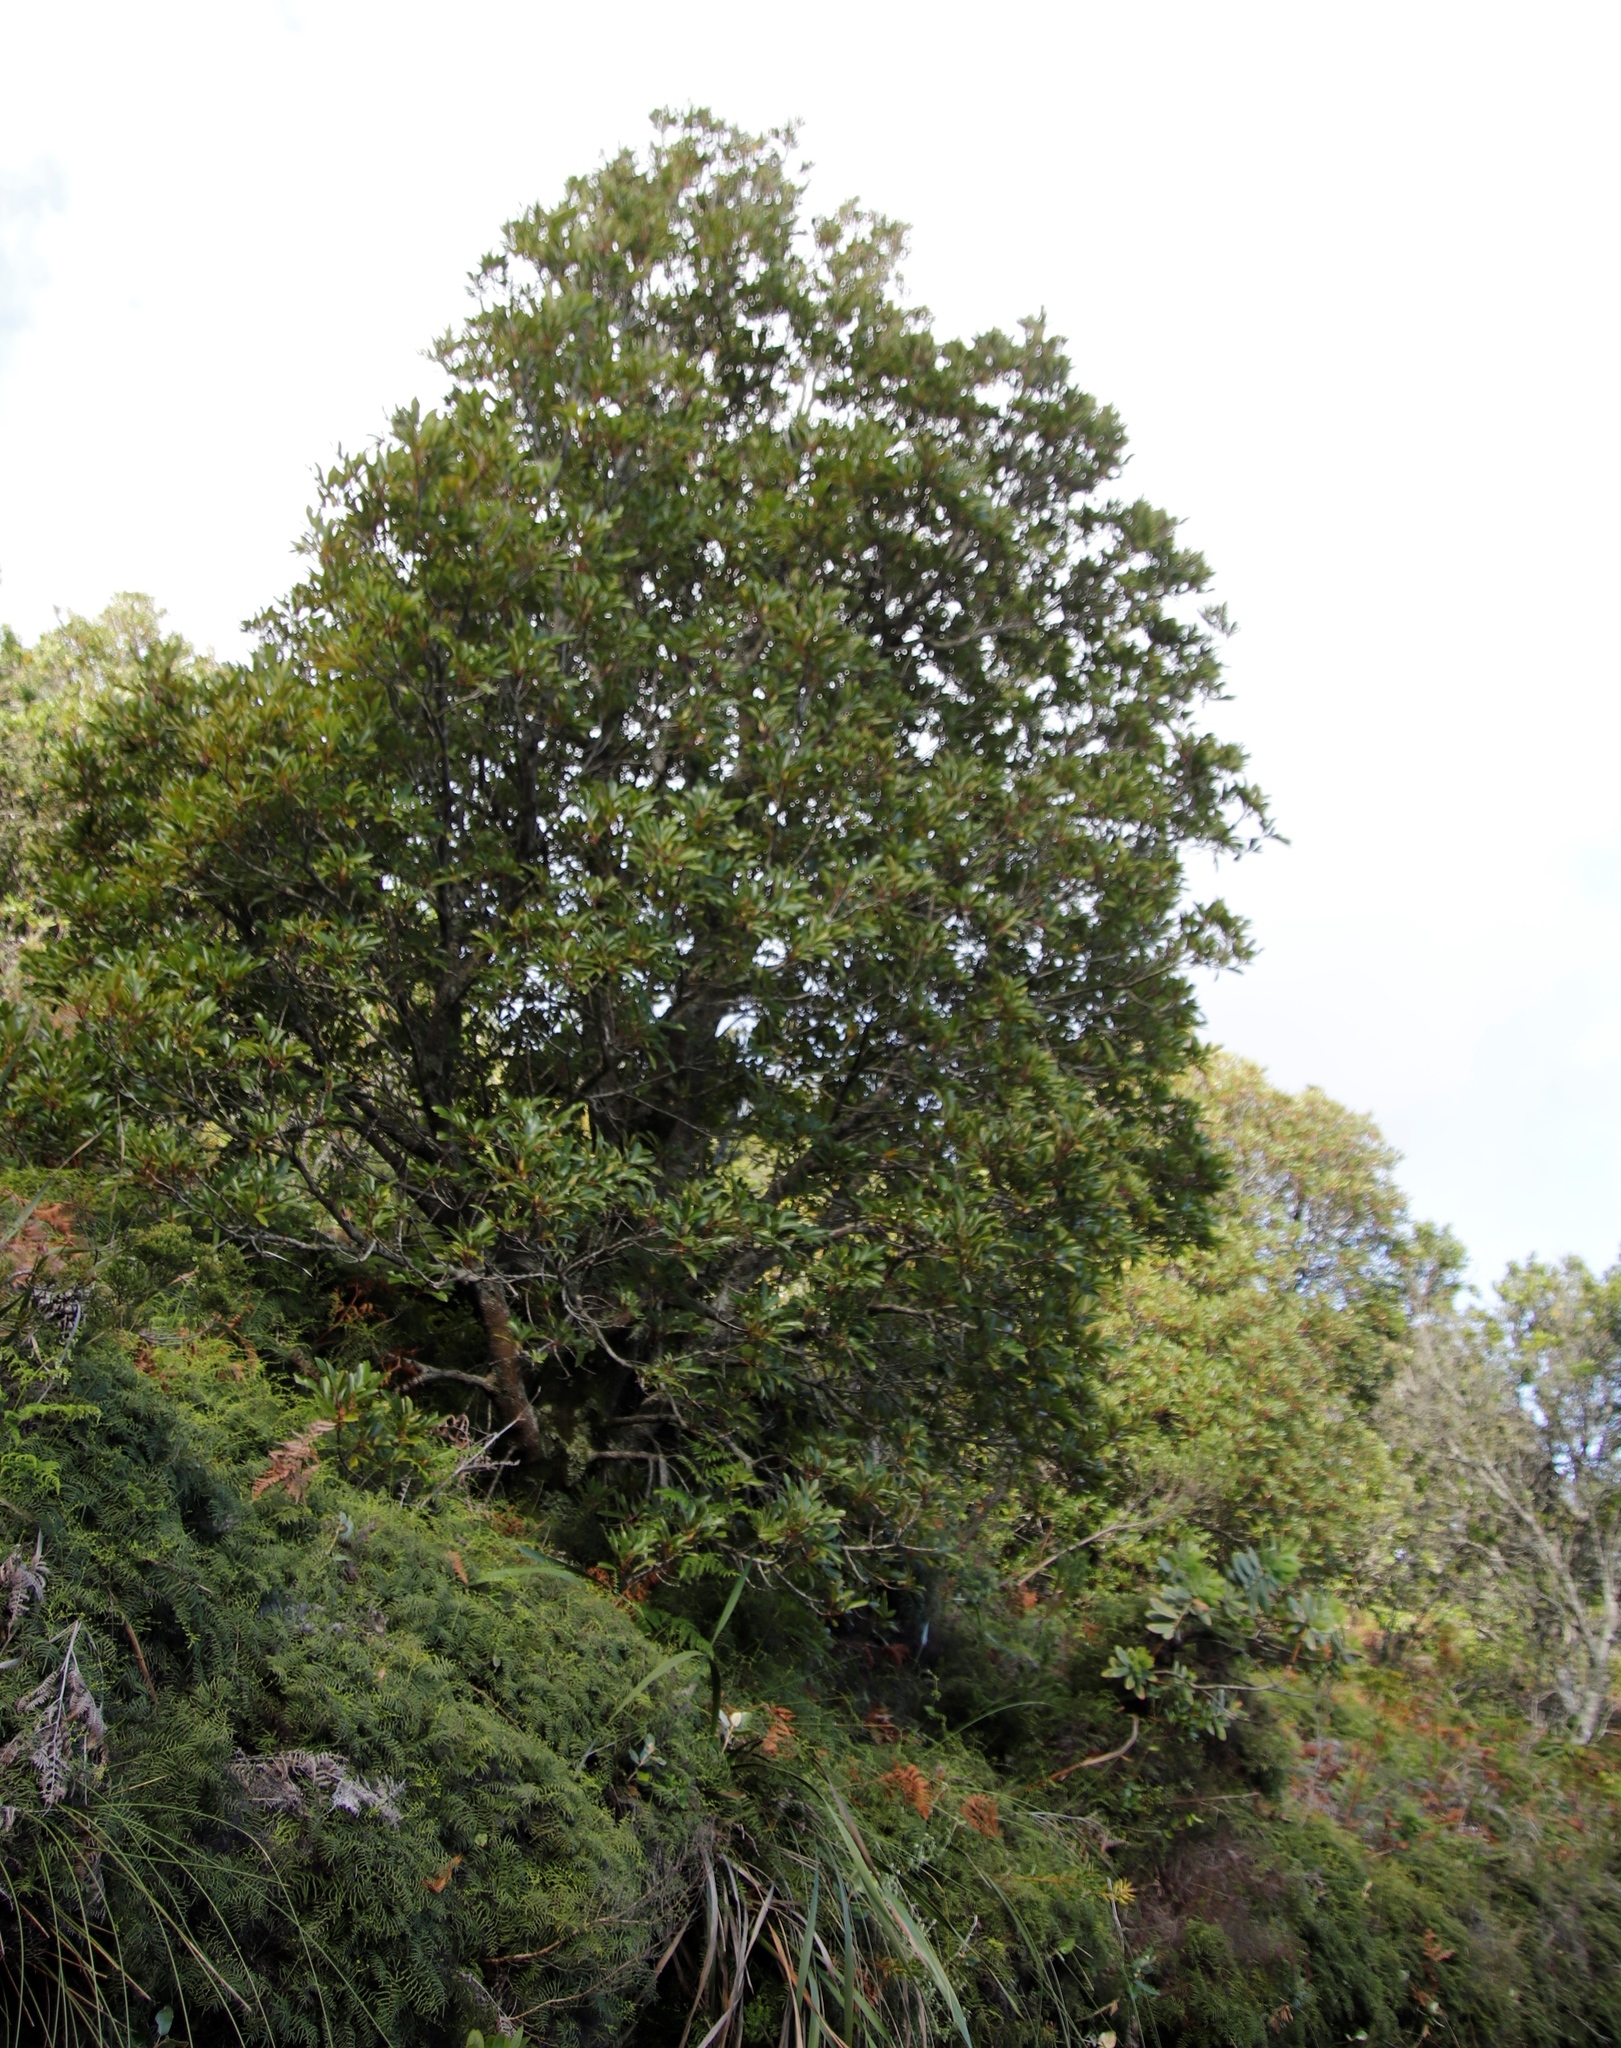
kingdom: Plantae
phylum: Tracheophyta
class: Magnoliopsida
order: Oxalidales
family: Cunoniaceae
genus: Cunonia
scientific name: Cunonia capensis
